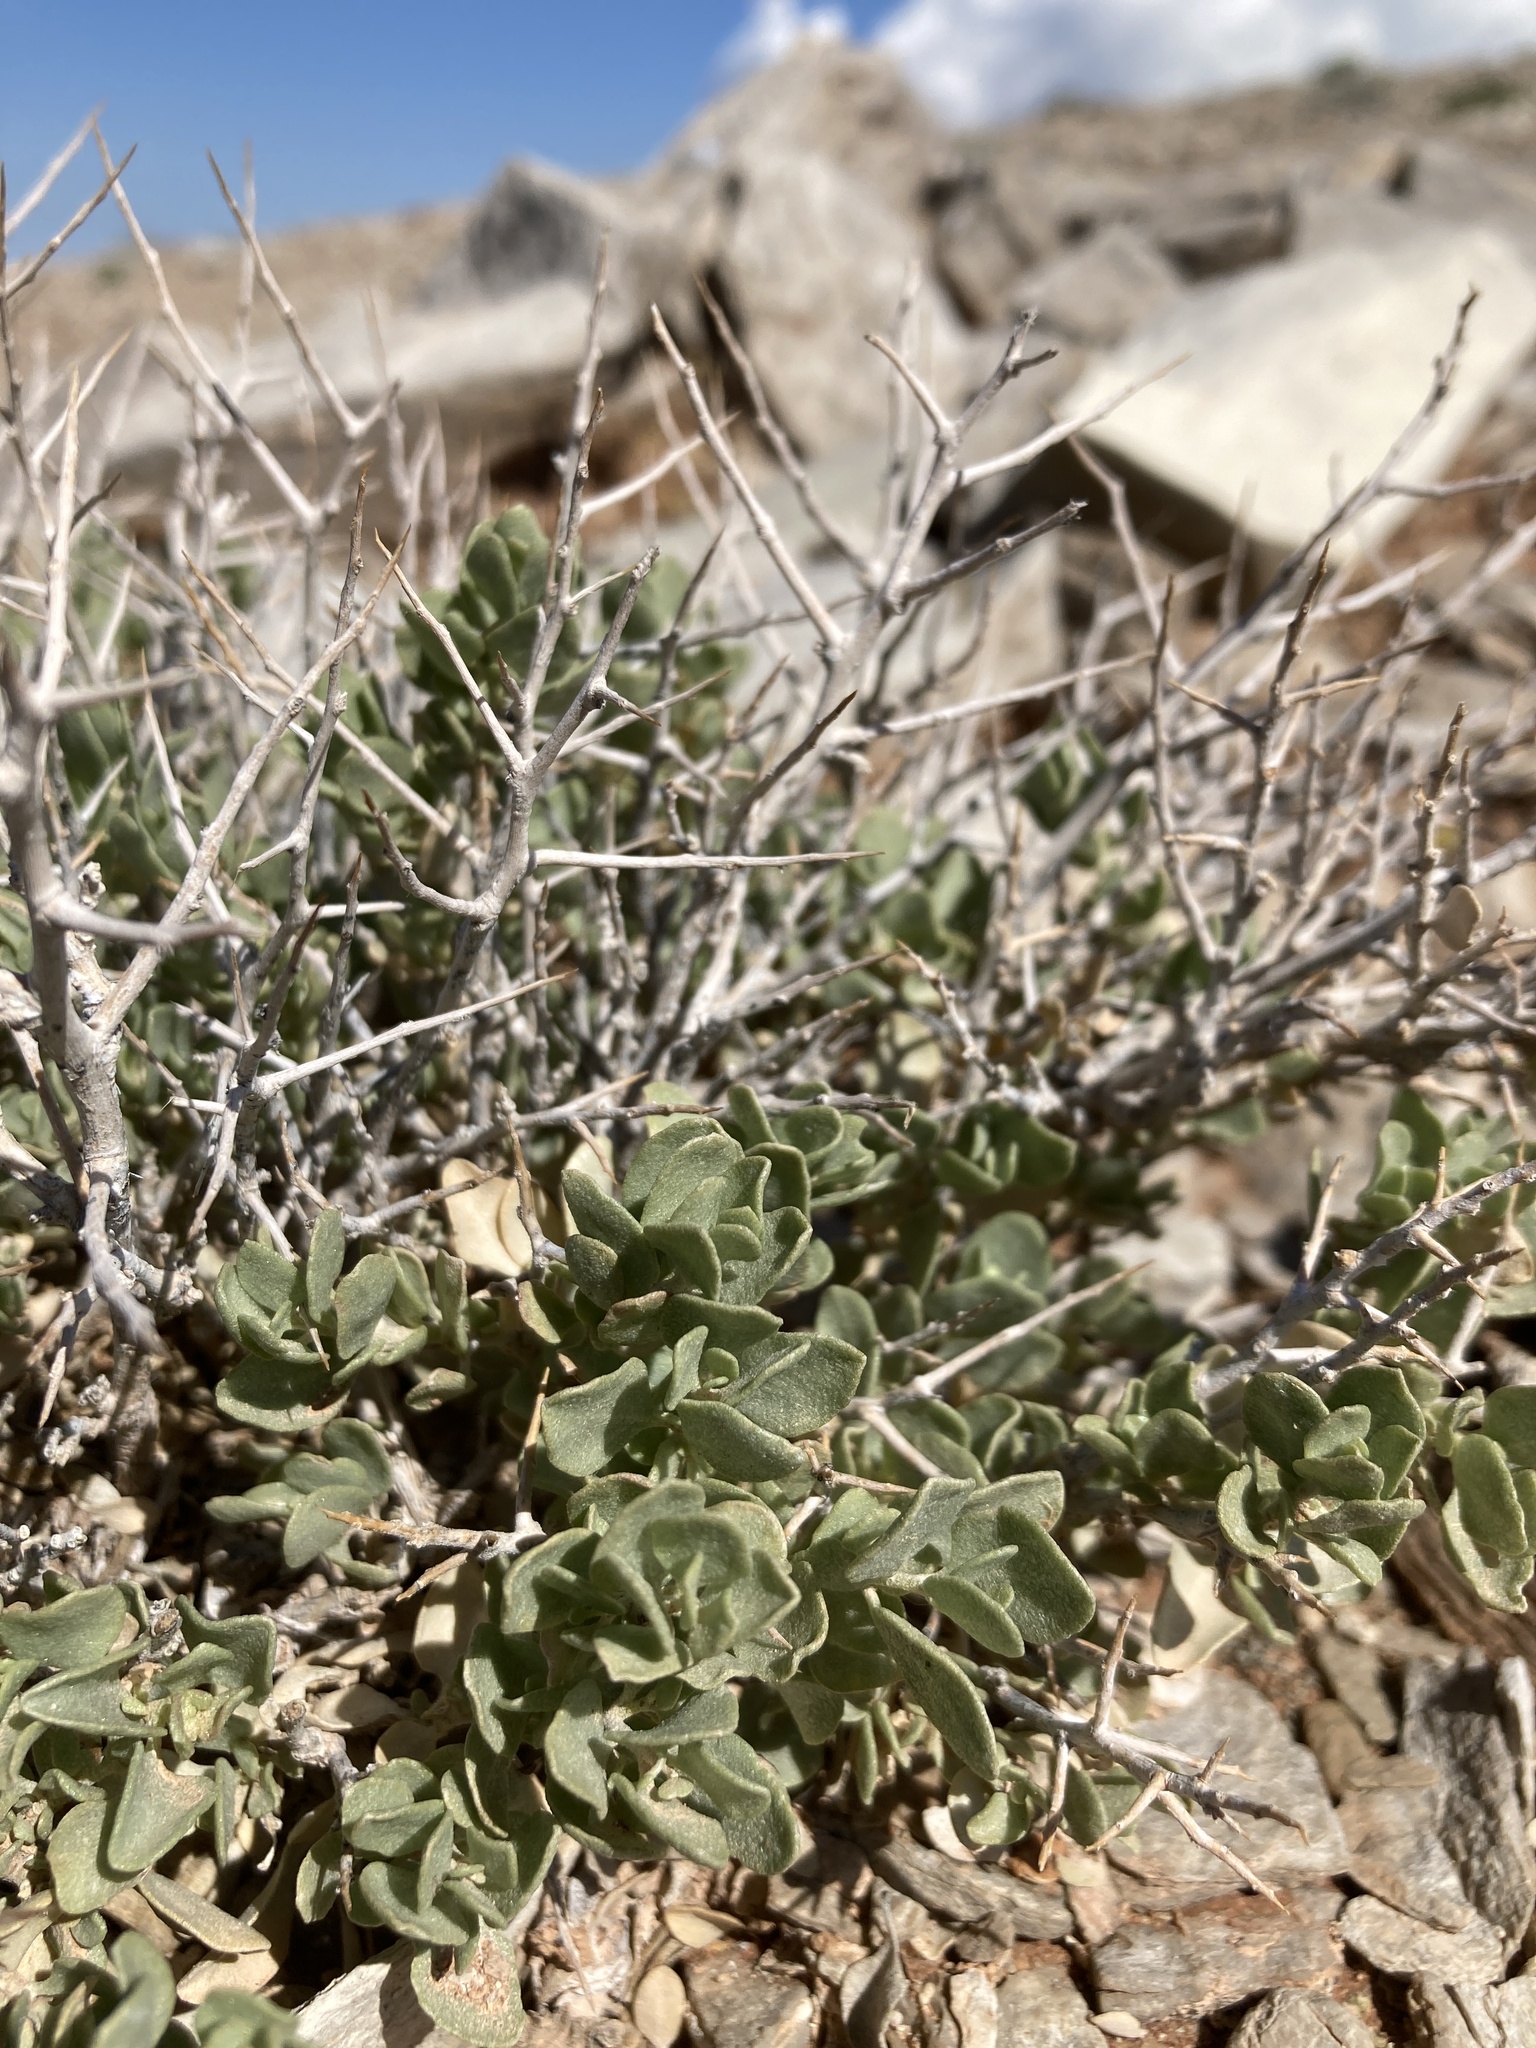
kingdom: Plantae
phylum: Tracheophyta
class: Magnoliopsida
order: Caryophyllales
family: Amaranthaceae
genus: Atriplex
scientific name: Atriplex confertifolia
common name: Shadscale
